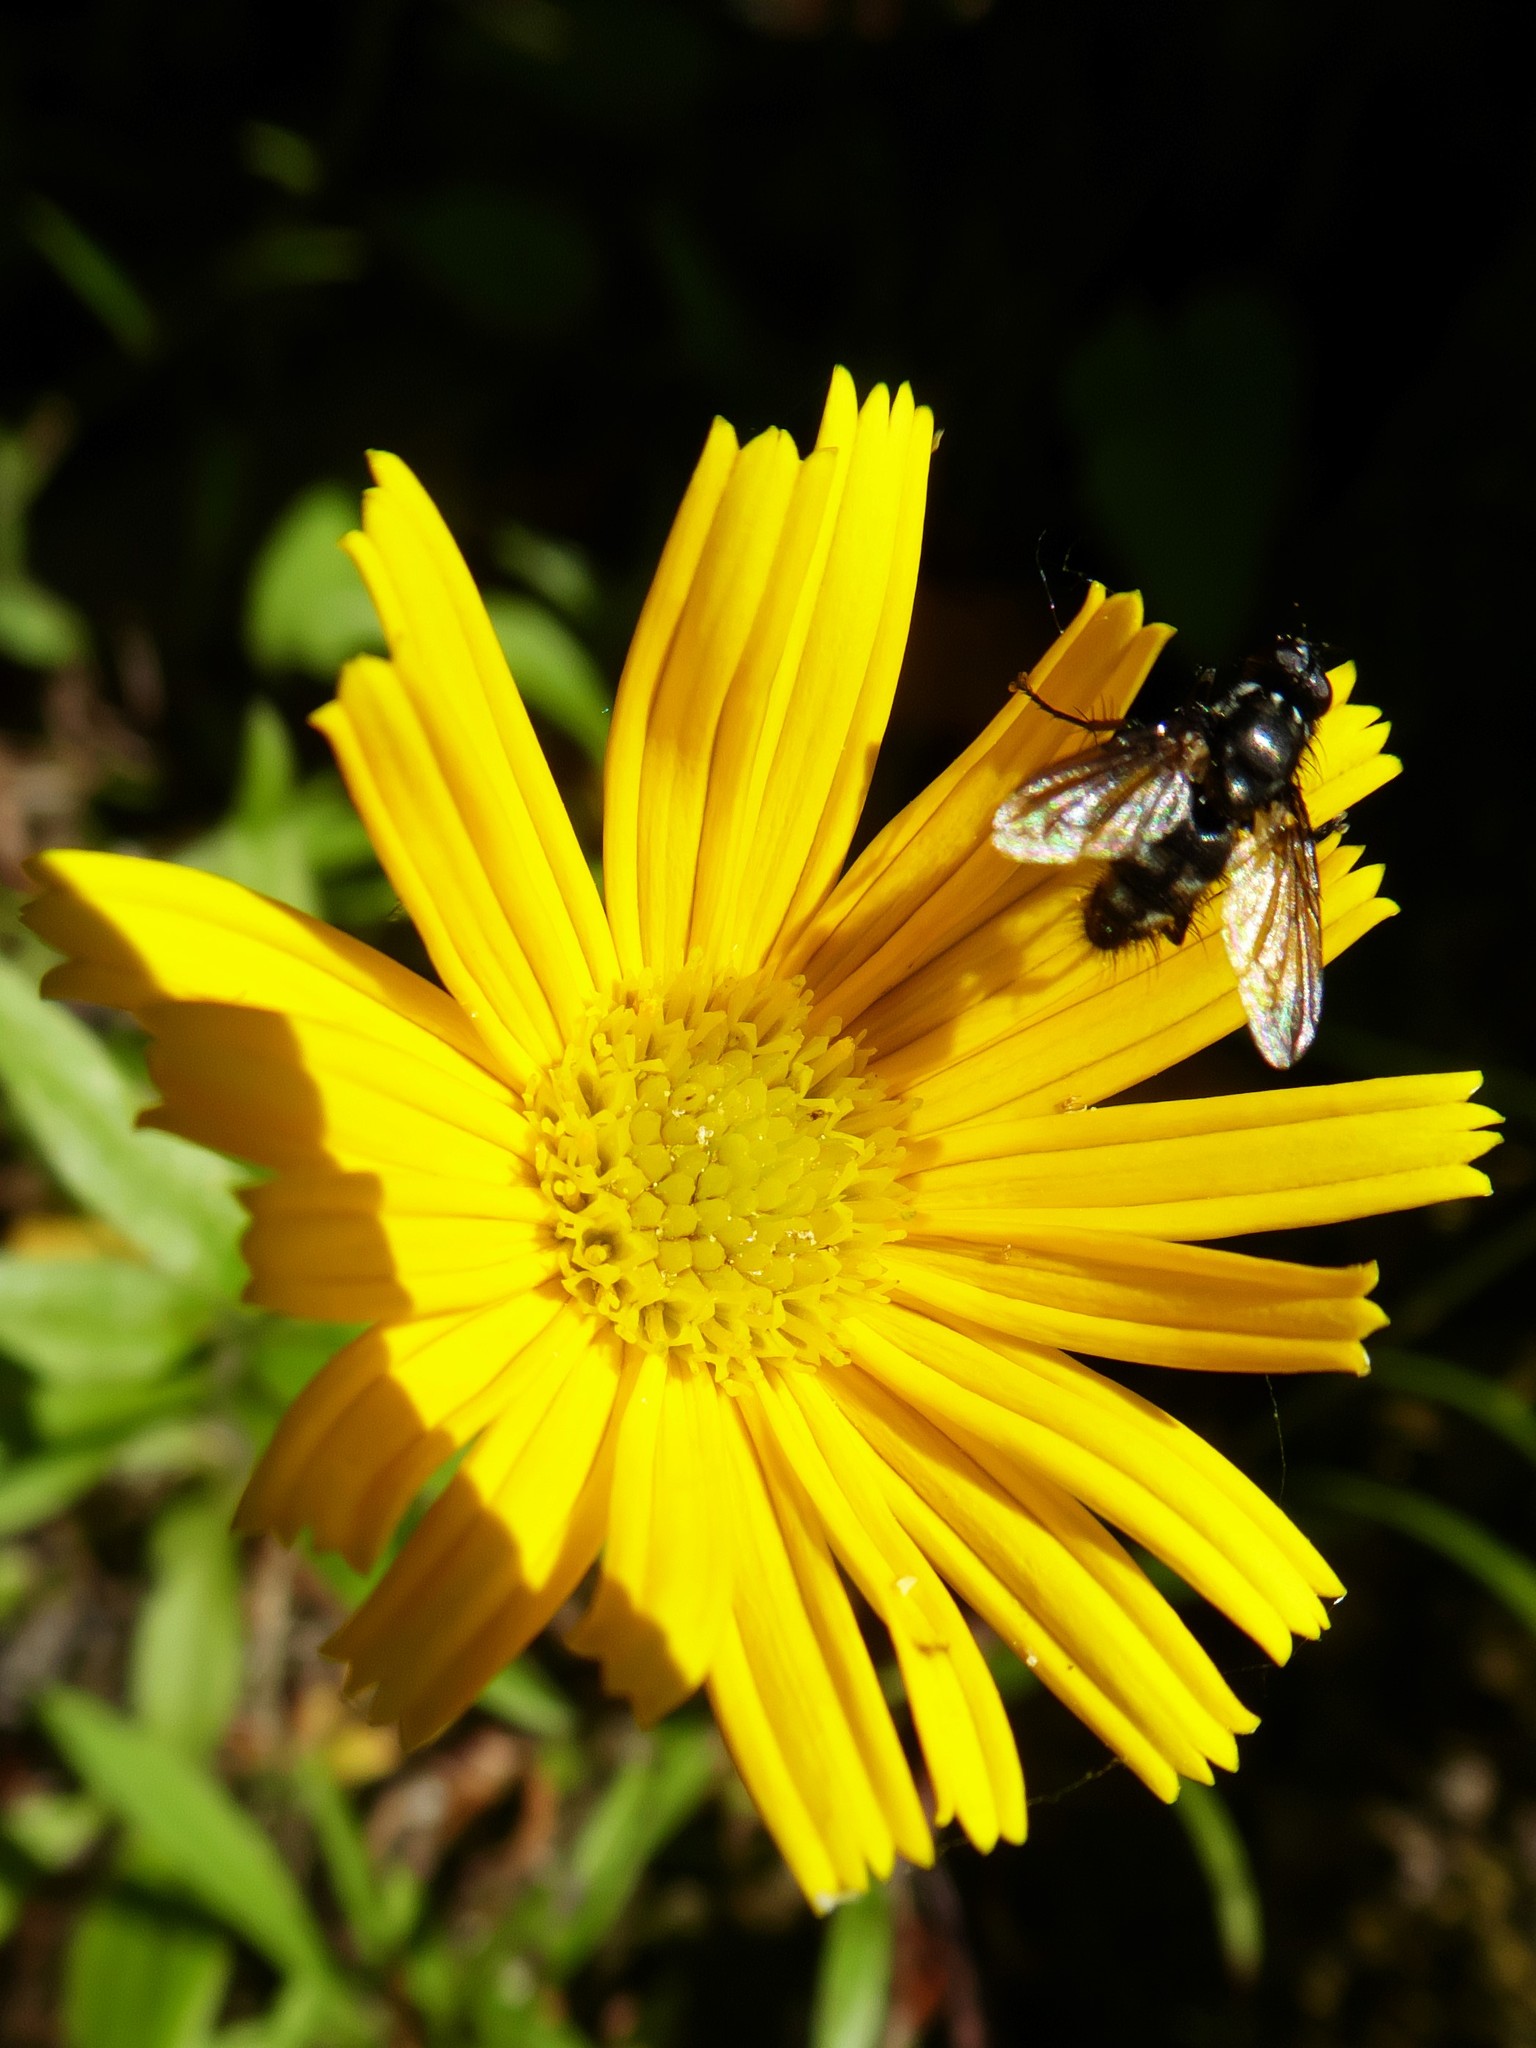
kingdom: Animalia
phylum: Arthropoda
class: Insecta
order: Diptera
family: Calliphoridae
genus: Rhinomorinia
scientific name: Rhinomorinia sarcophagina
